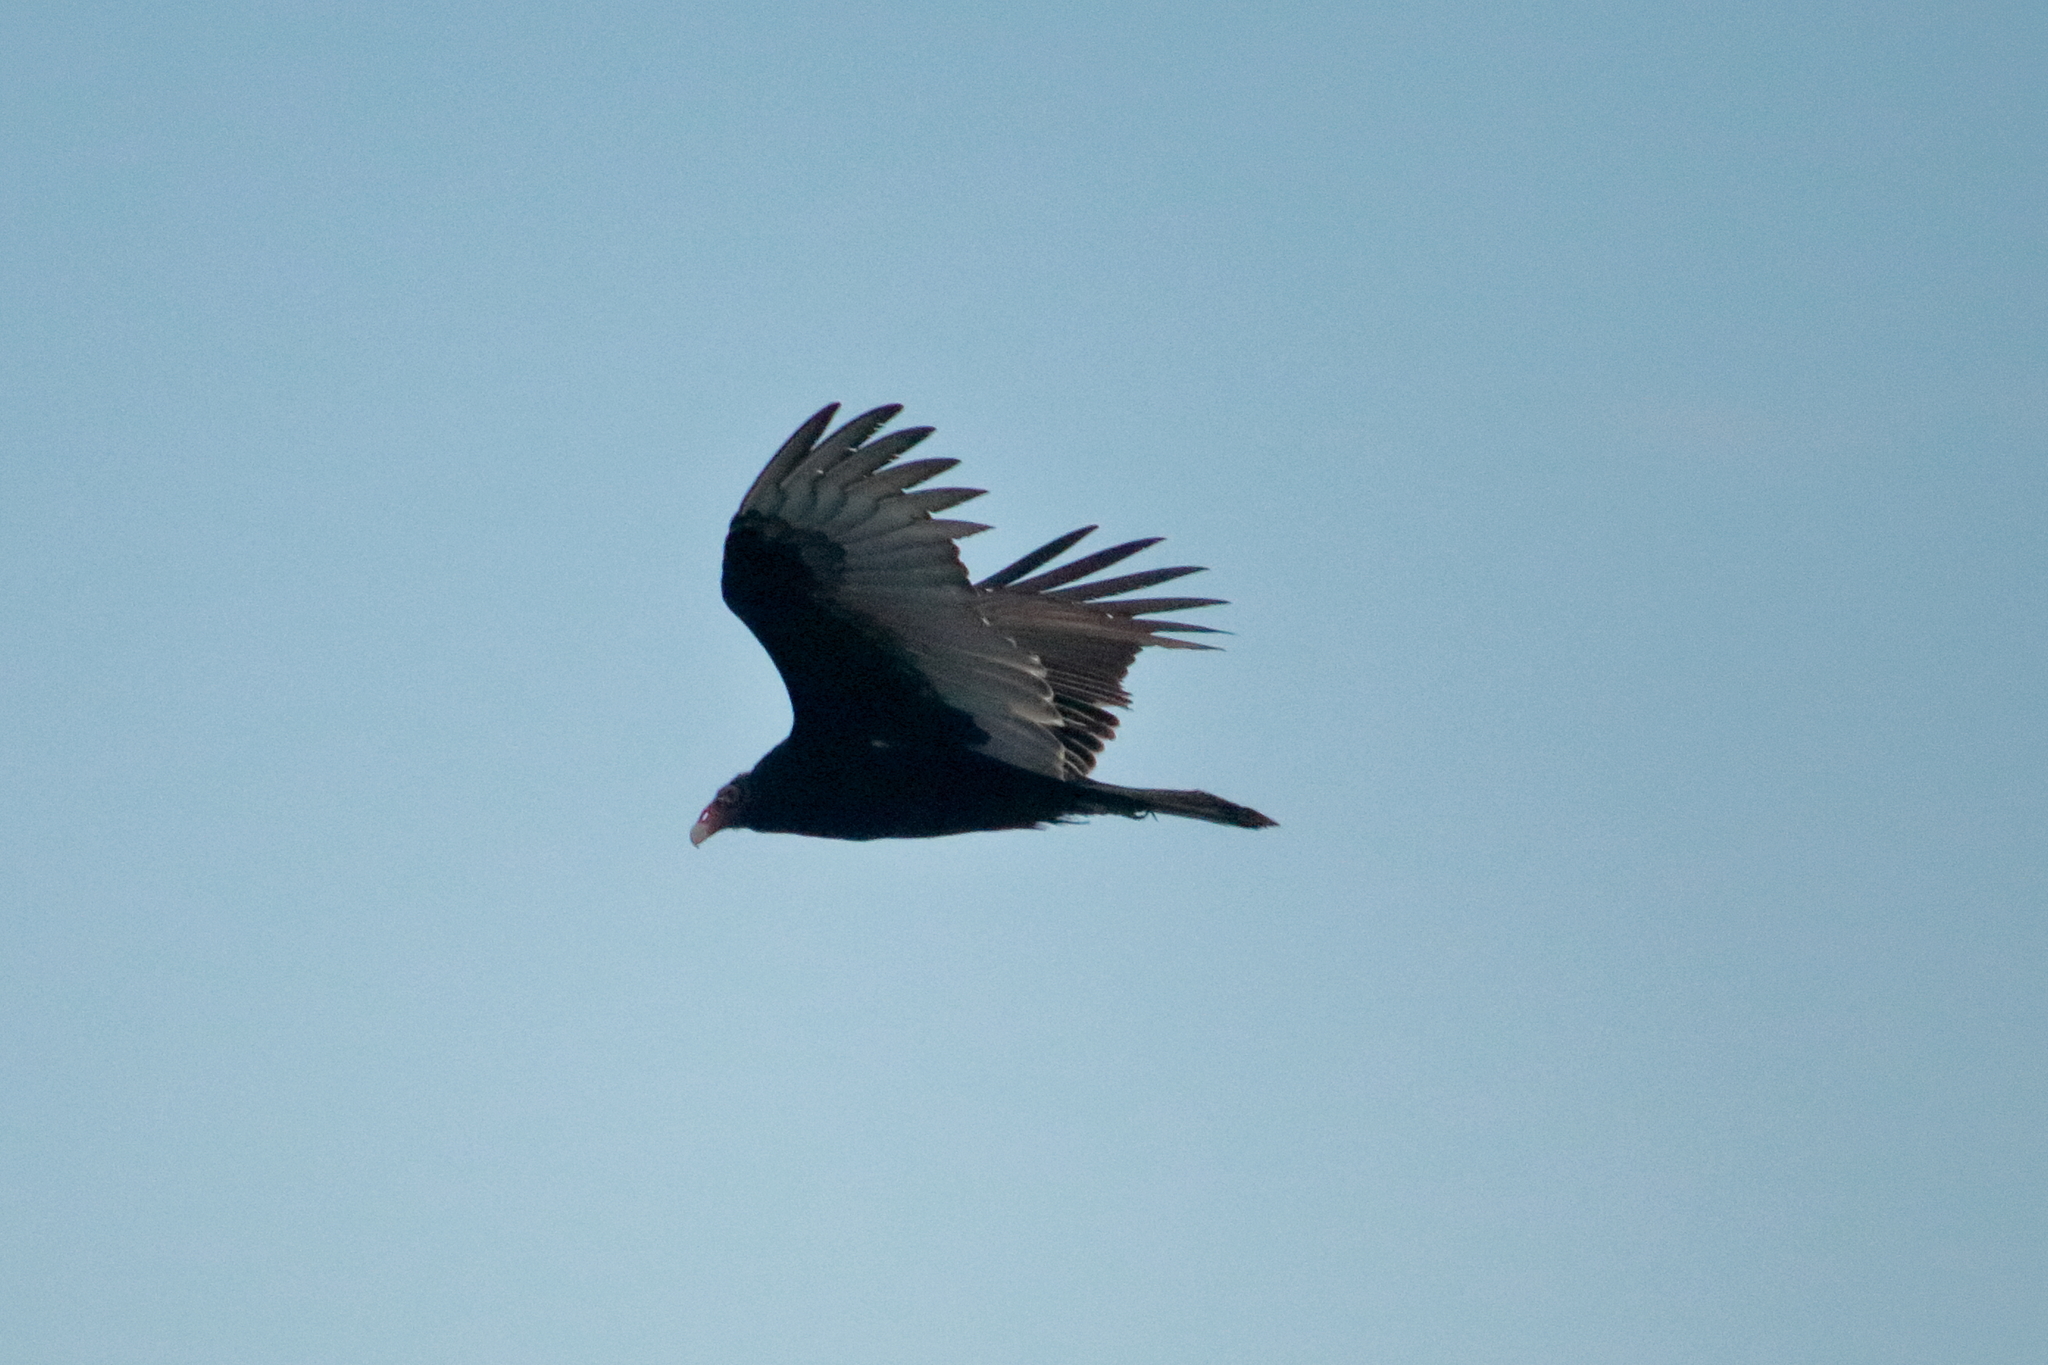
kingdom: Animalia
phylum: Chordata
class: Aves
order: Accipitriformes
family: Cathartidae
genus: Cathartes
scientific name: Cathartes aura
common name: Turkey vulture
